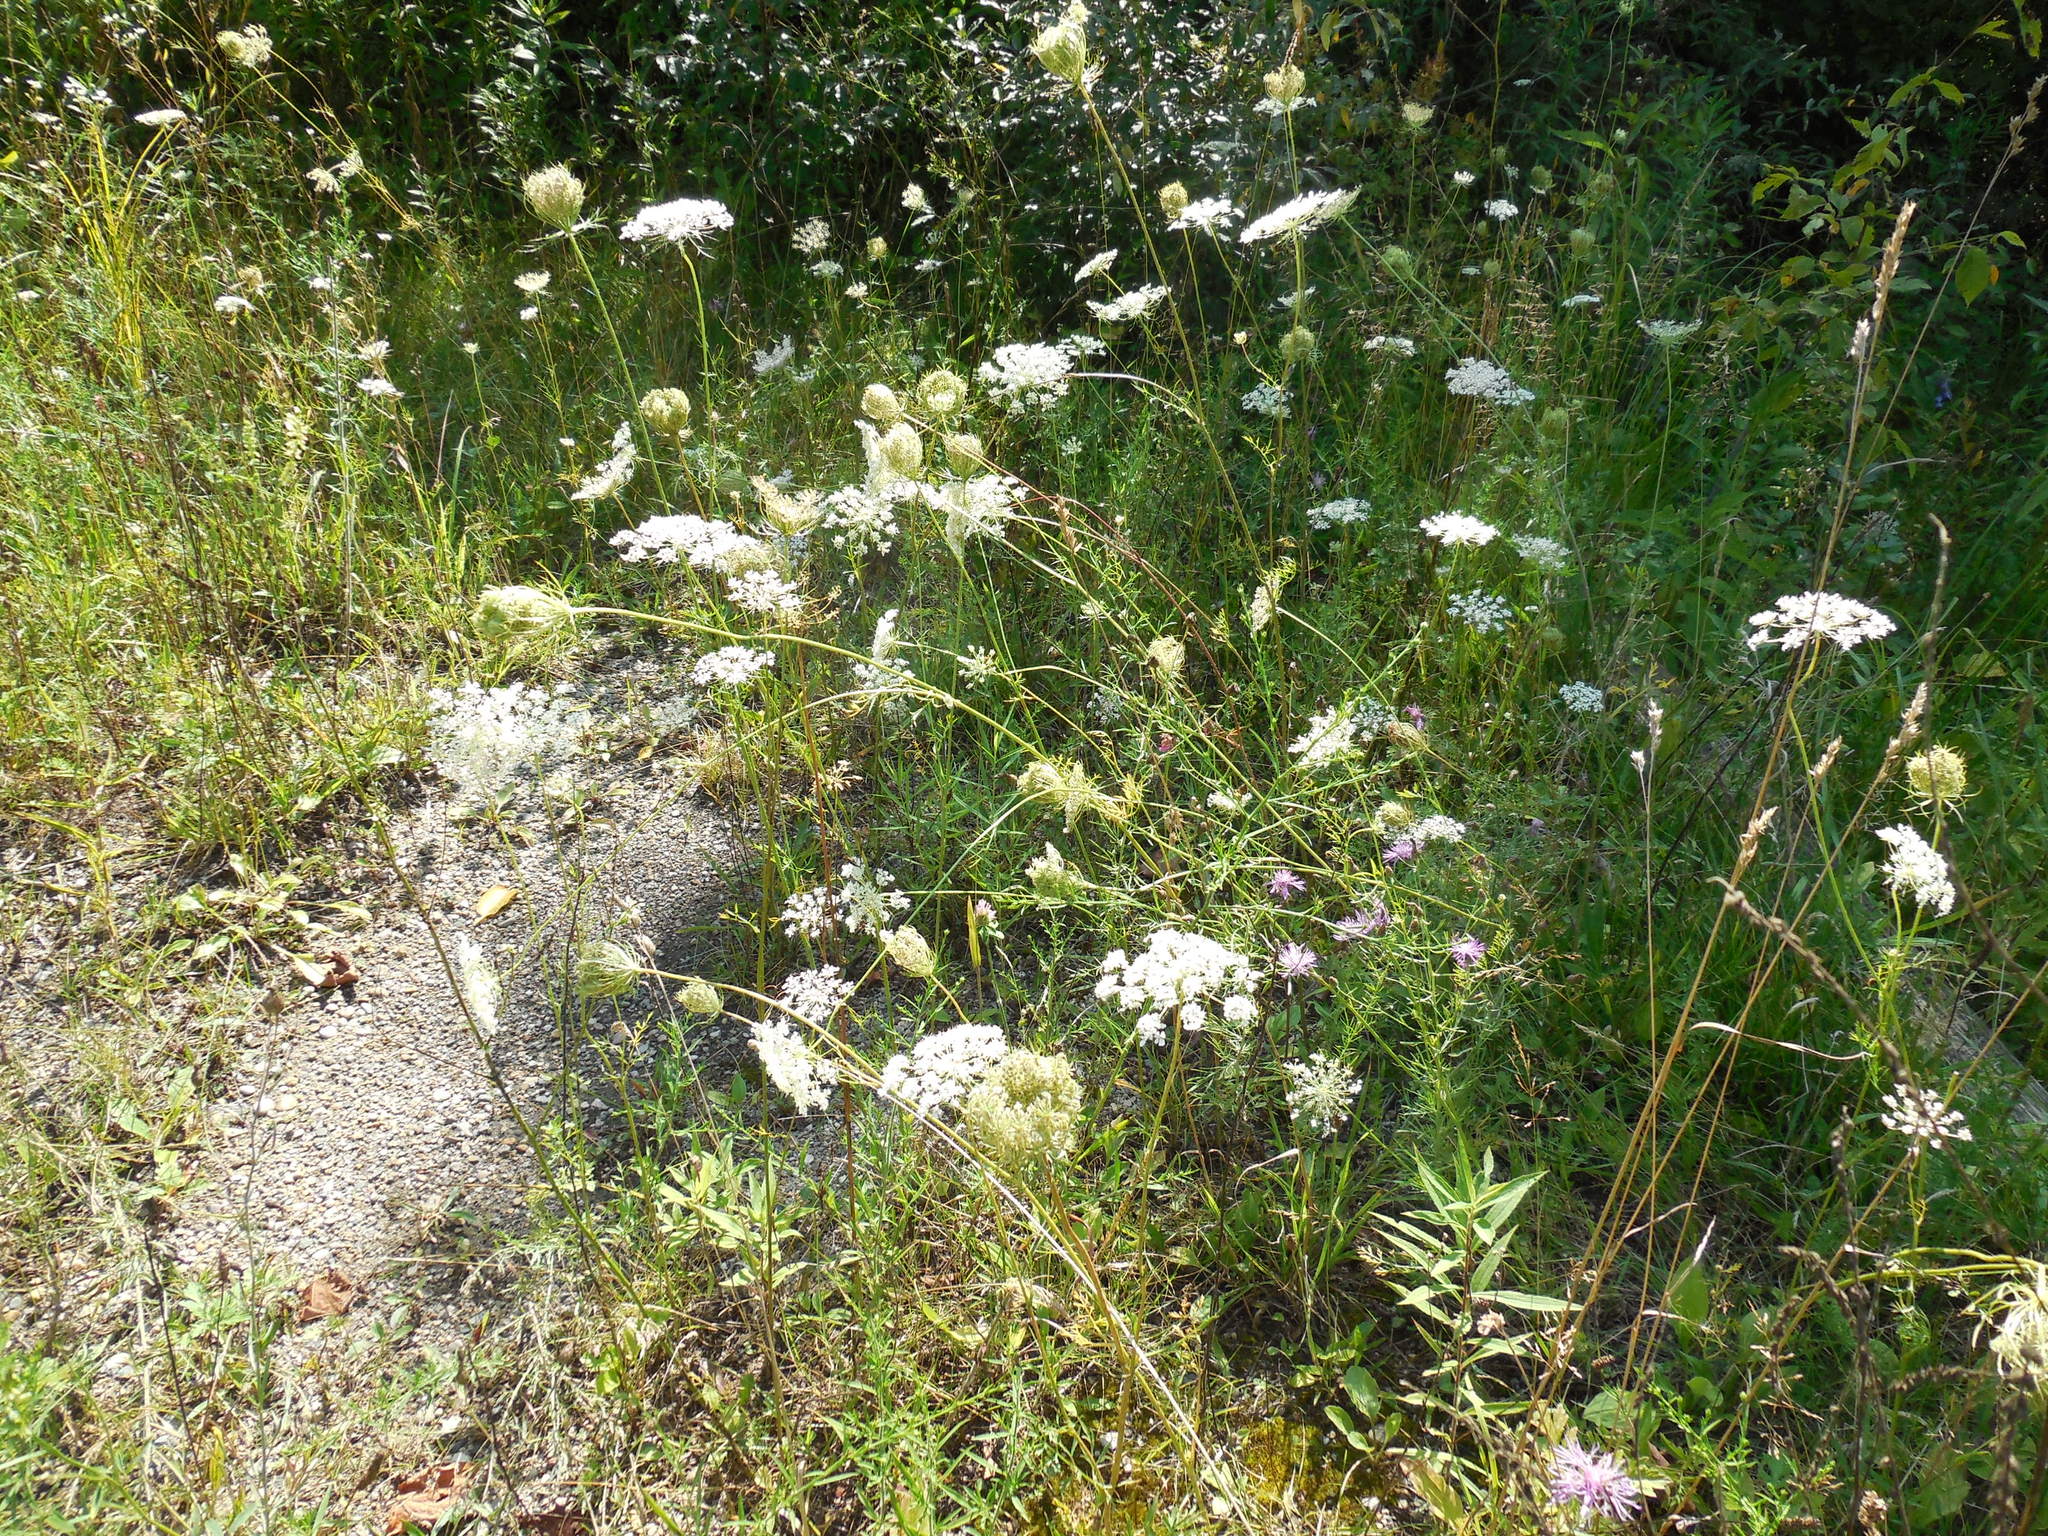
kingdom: Plantae
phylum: Tracheophyta
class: Magnoliopsida
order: Apiales
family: Apiaceae
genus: Daucus
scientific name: Daucus carota
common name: Wild carrot
